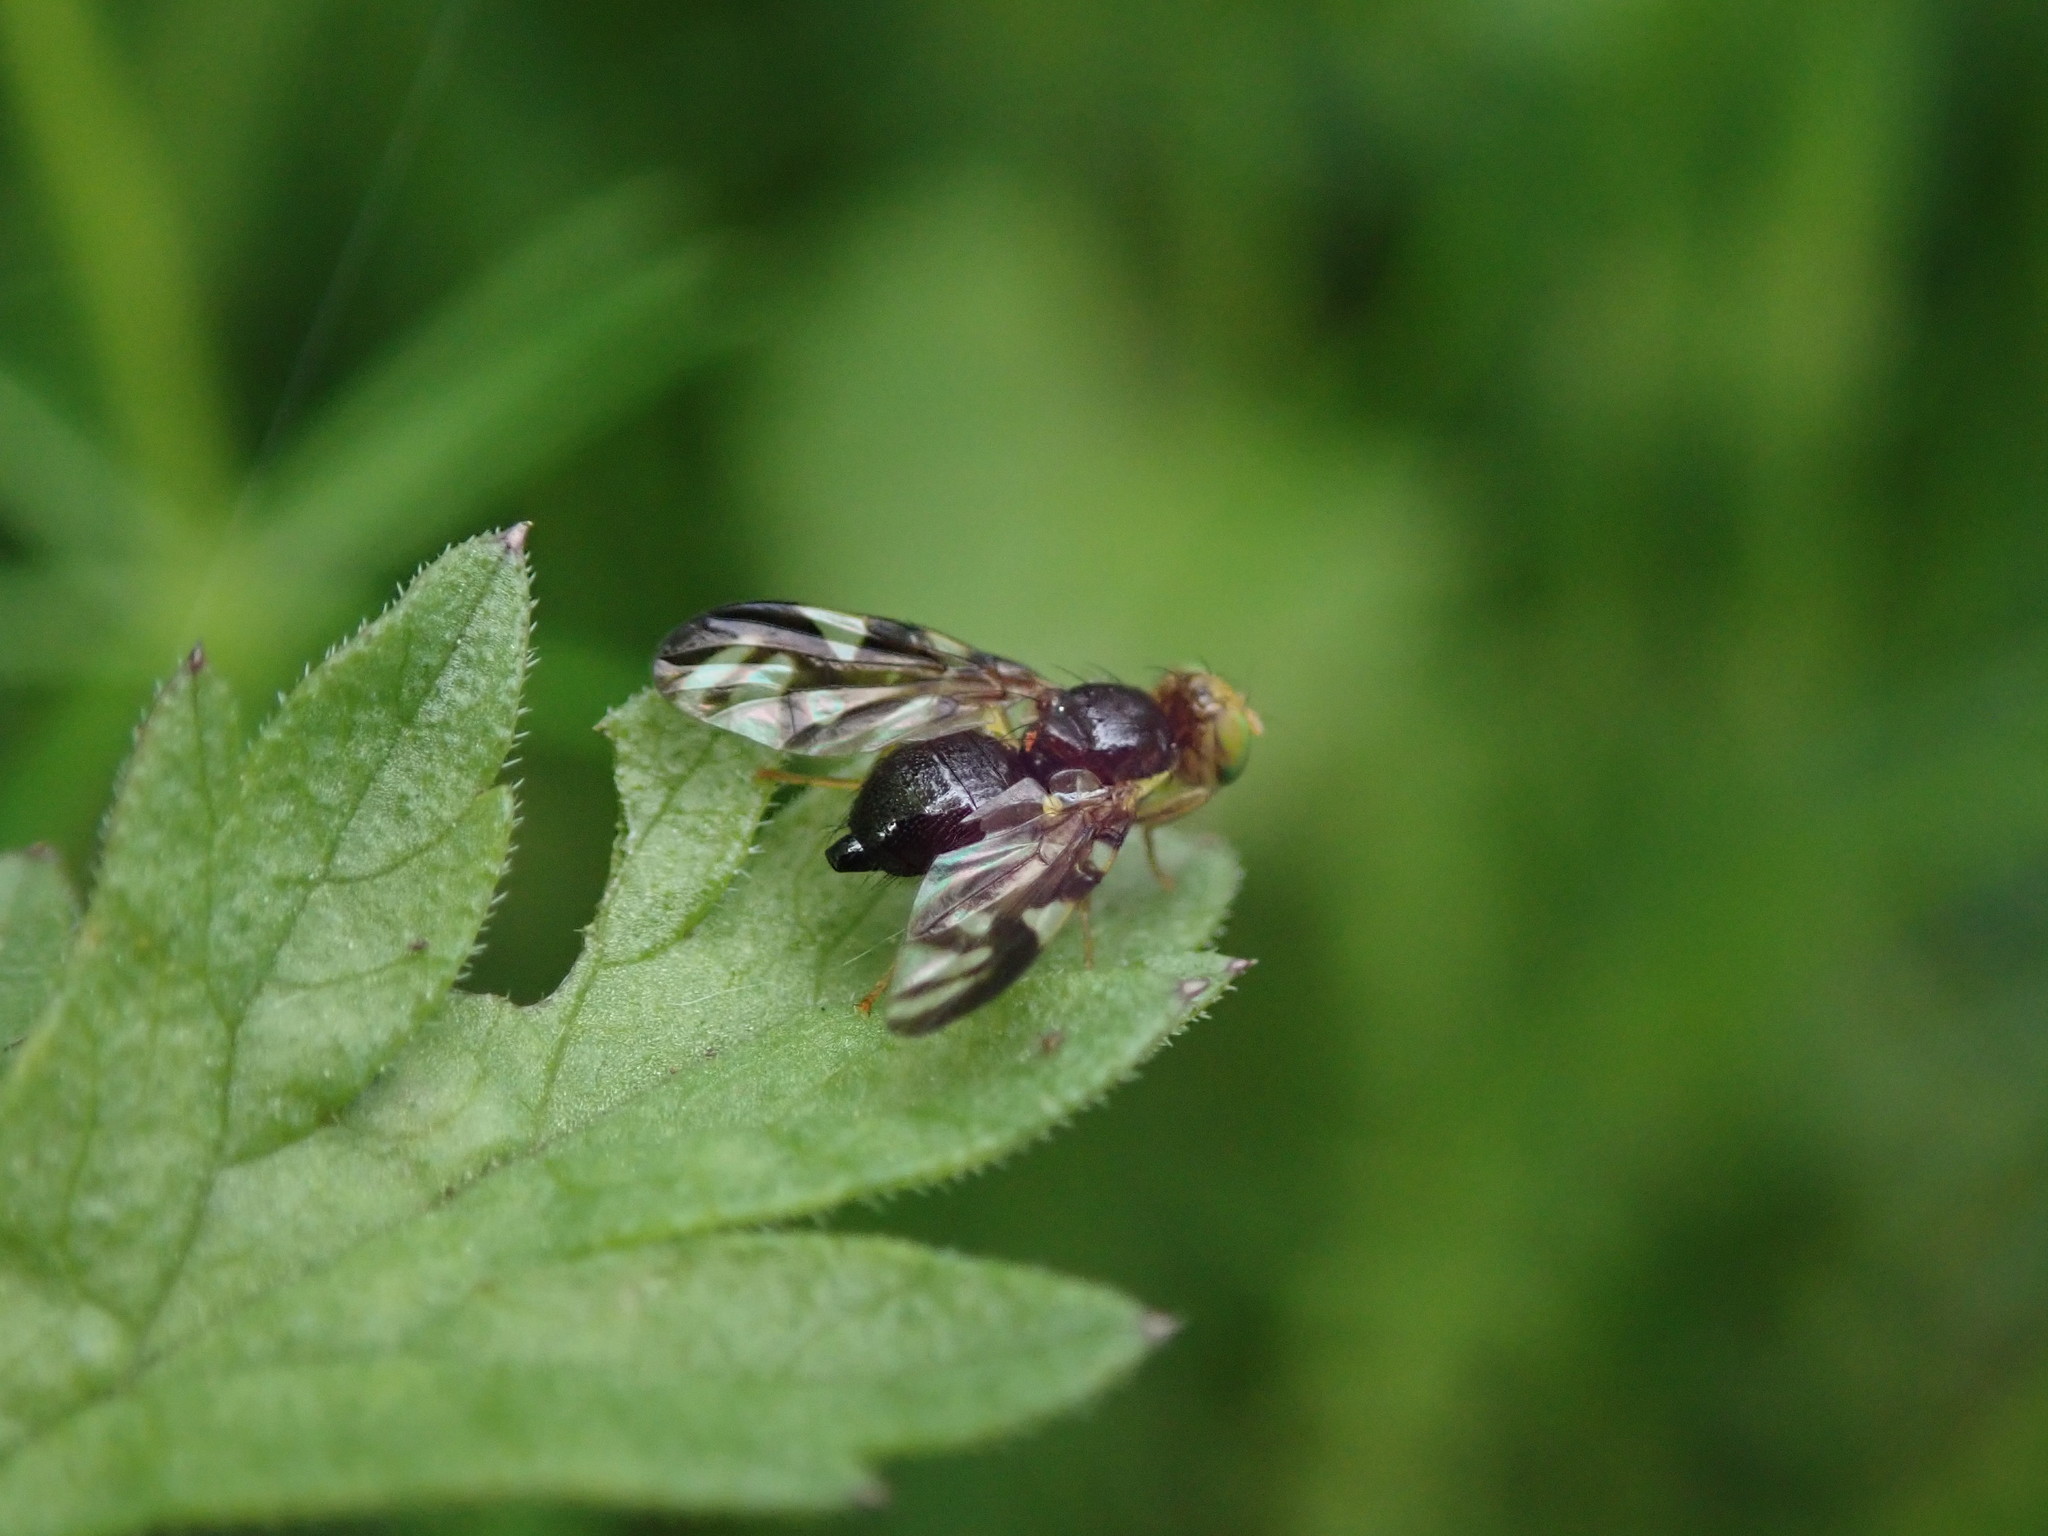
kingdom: Animalia
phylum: Arthropoda
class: Insecta
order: Diptera
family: Tephritidae
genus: Euleia
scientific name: Euleia heraclei
